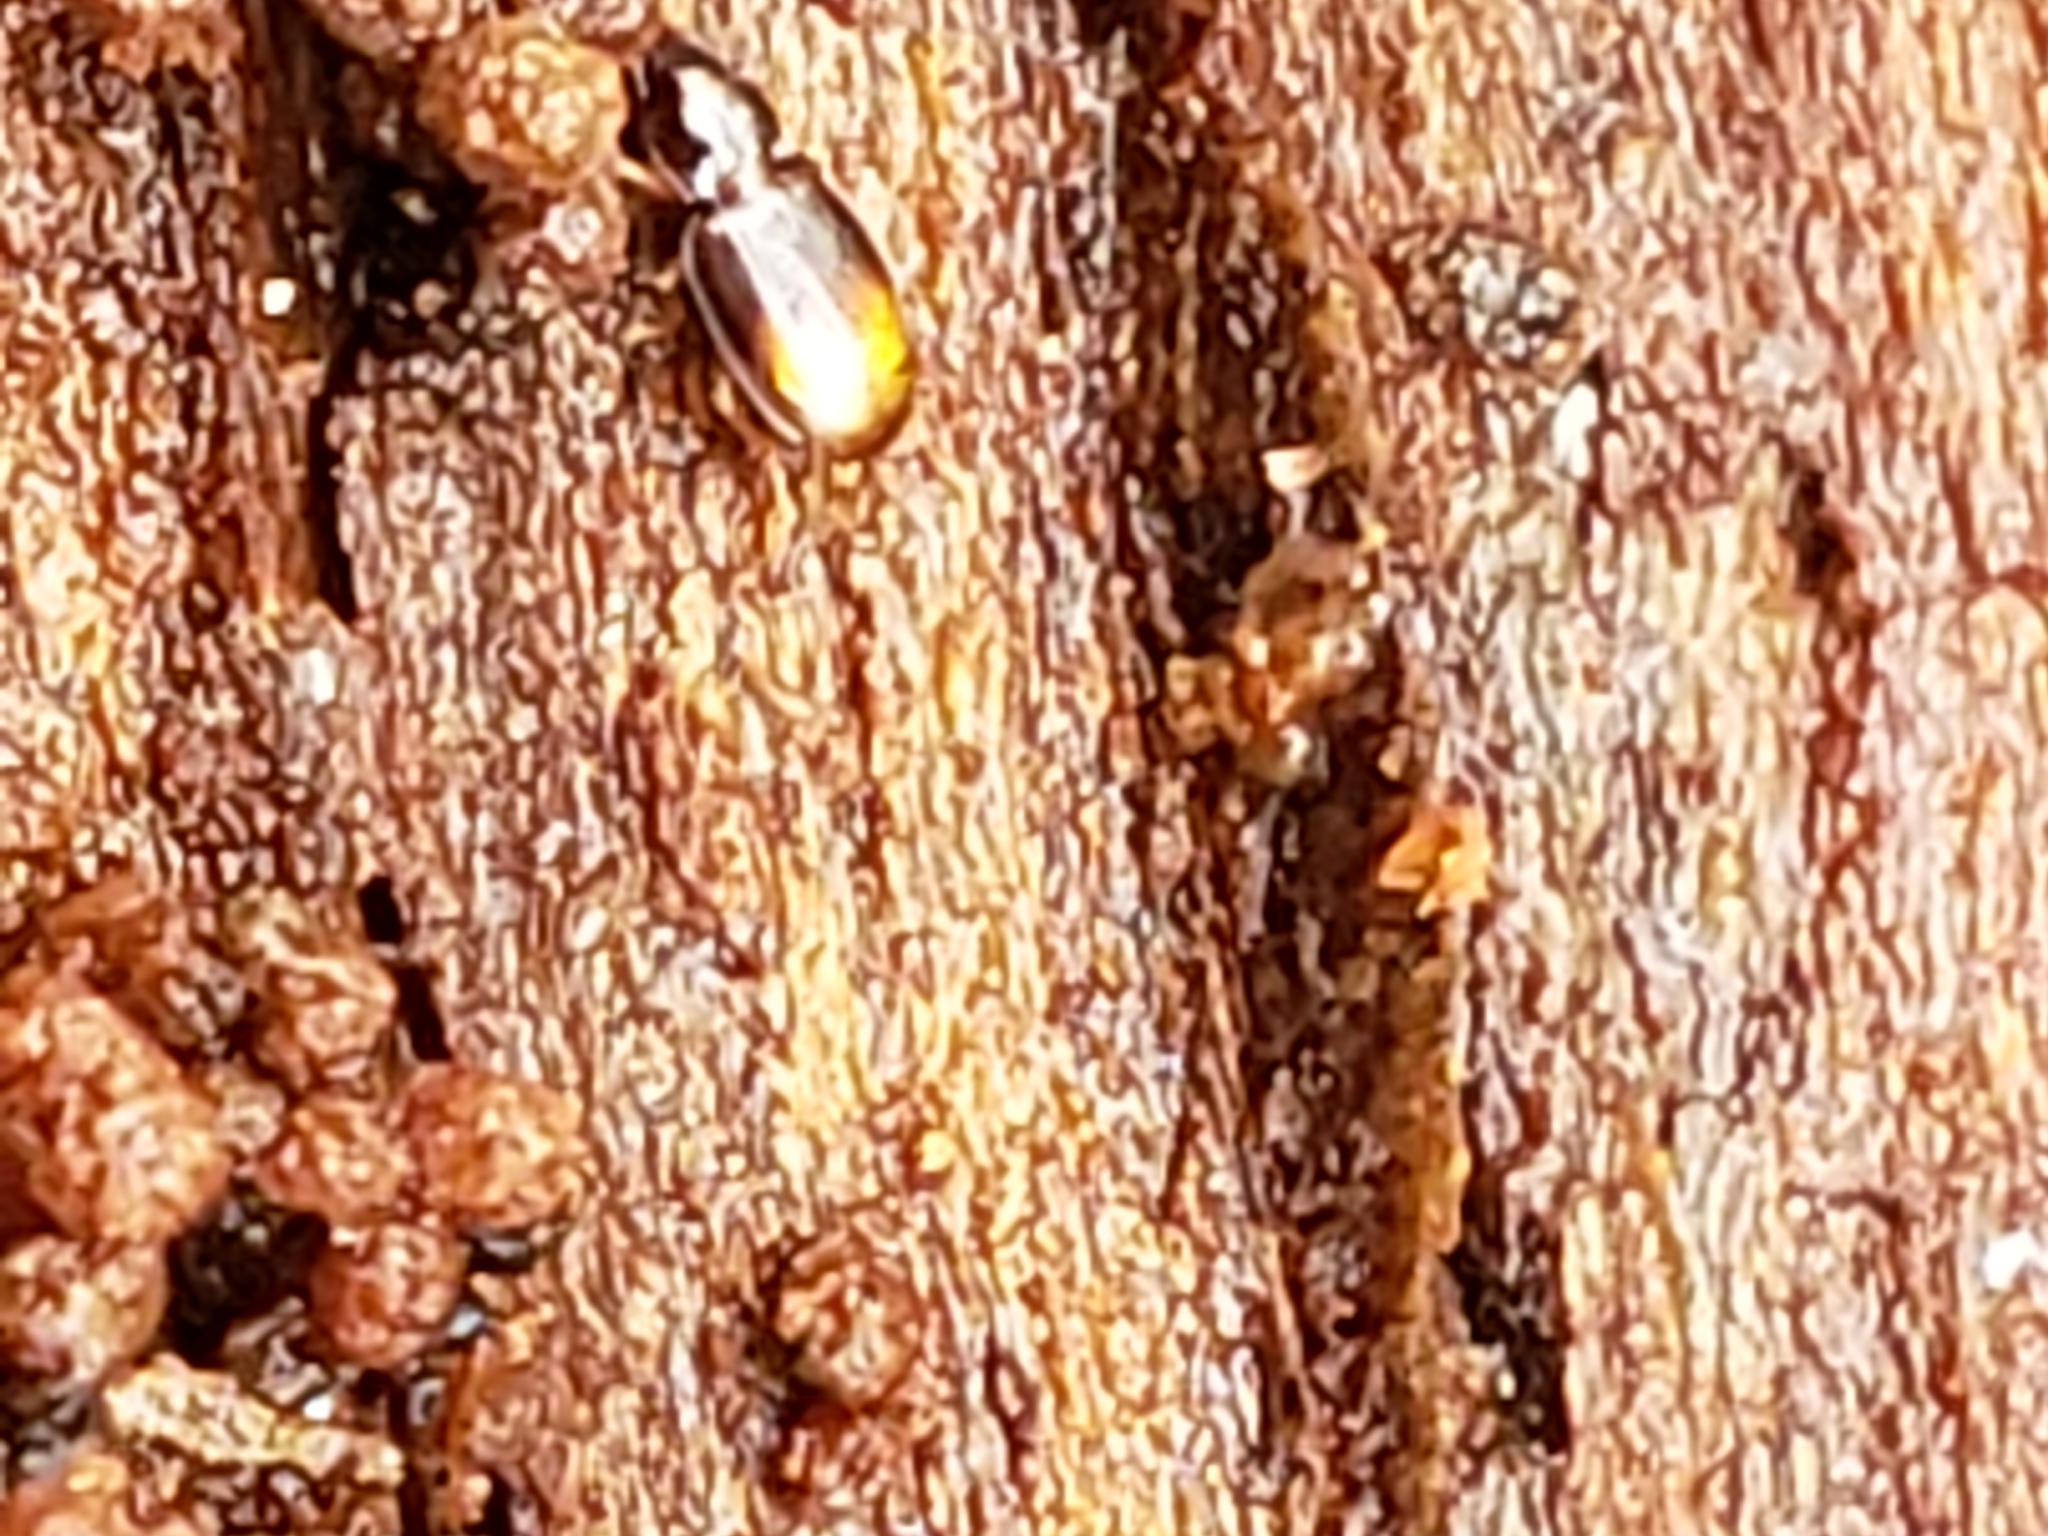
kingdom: Animalia
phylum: Arthropoda
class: Insecta
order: Coleoptera
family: Carabidae
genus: Mioptachys
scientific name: Mioptachys flavicauda
